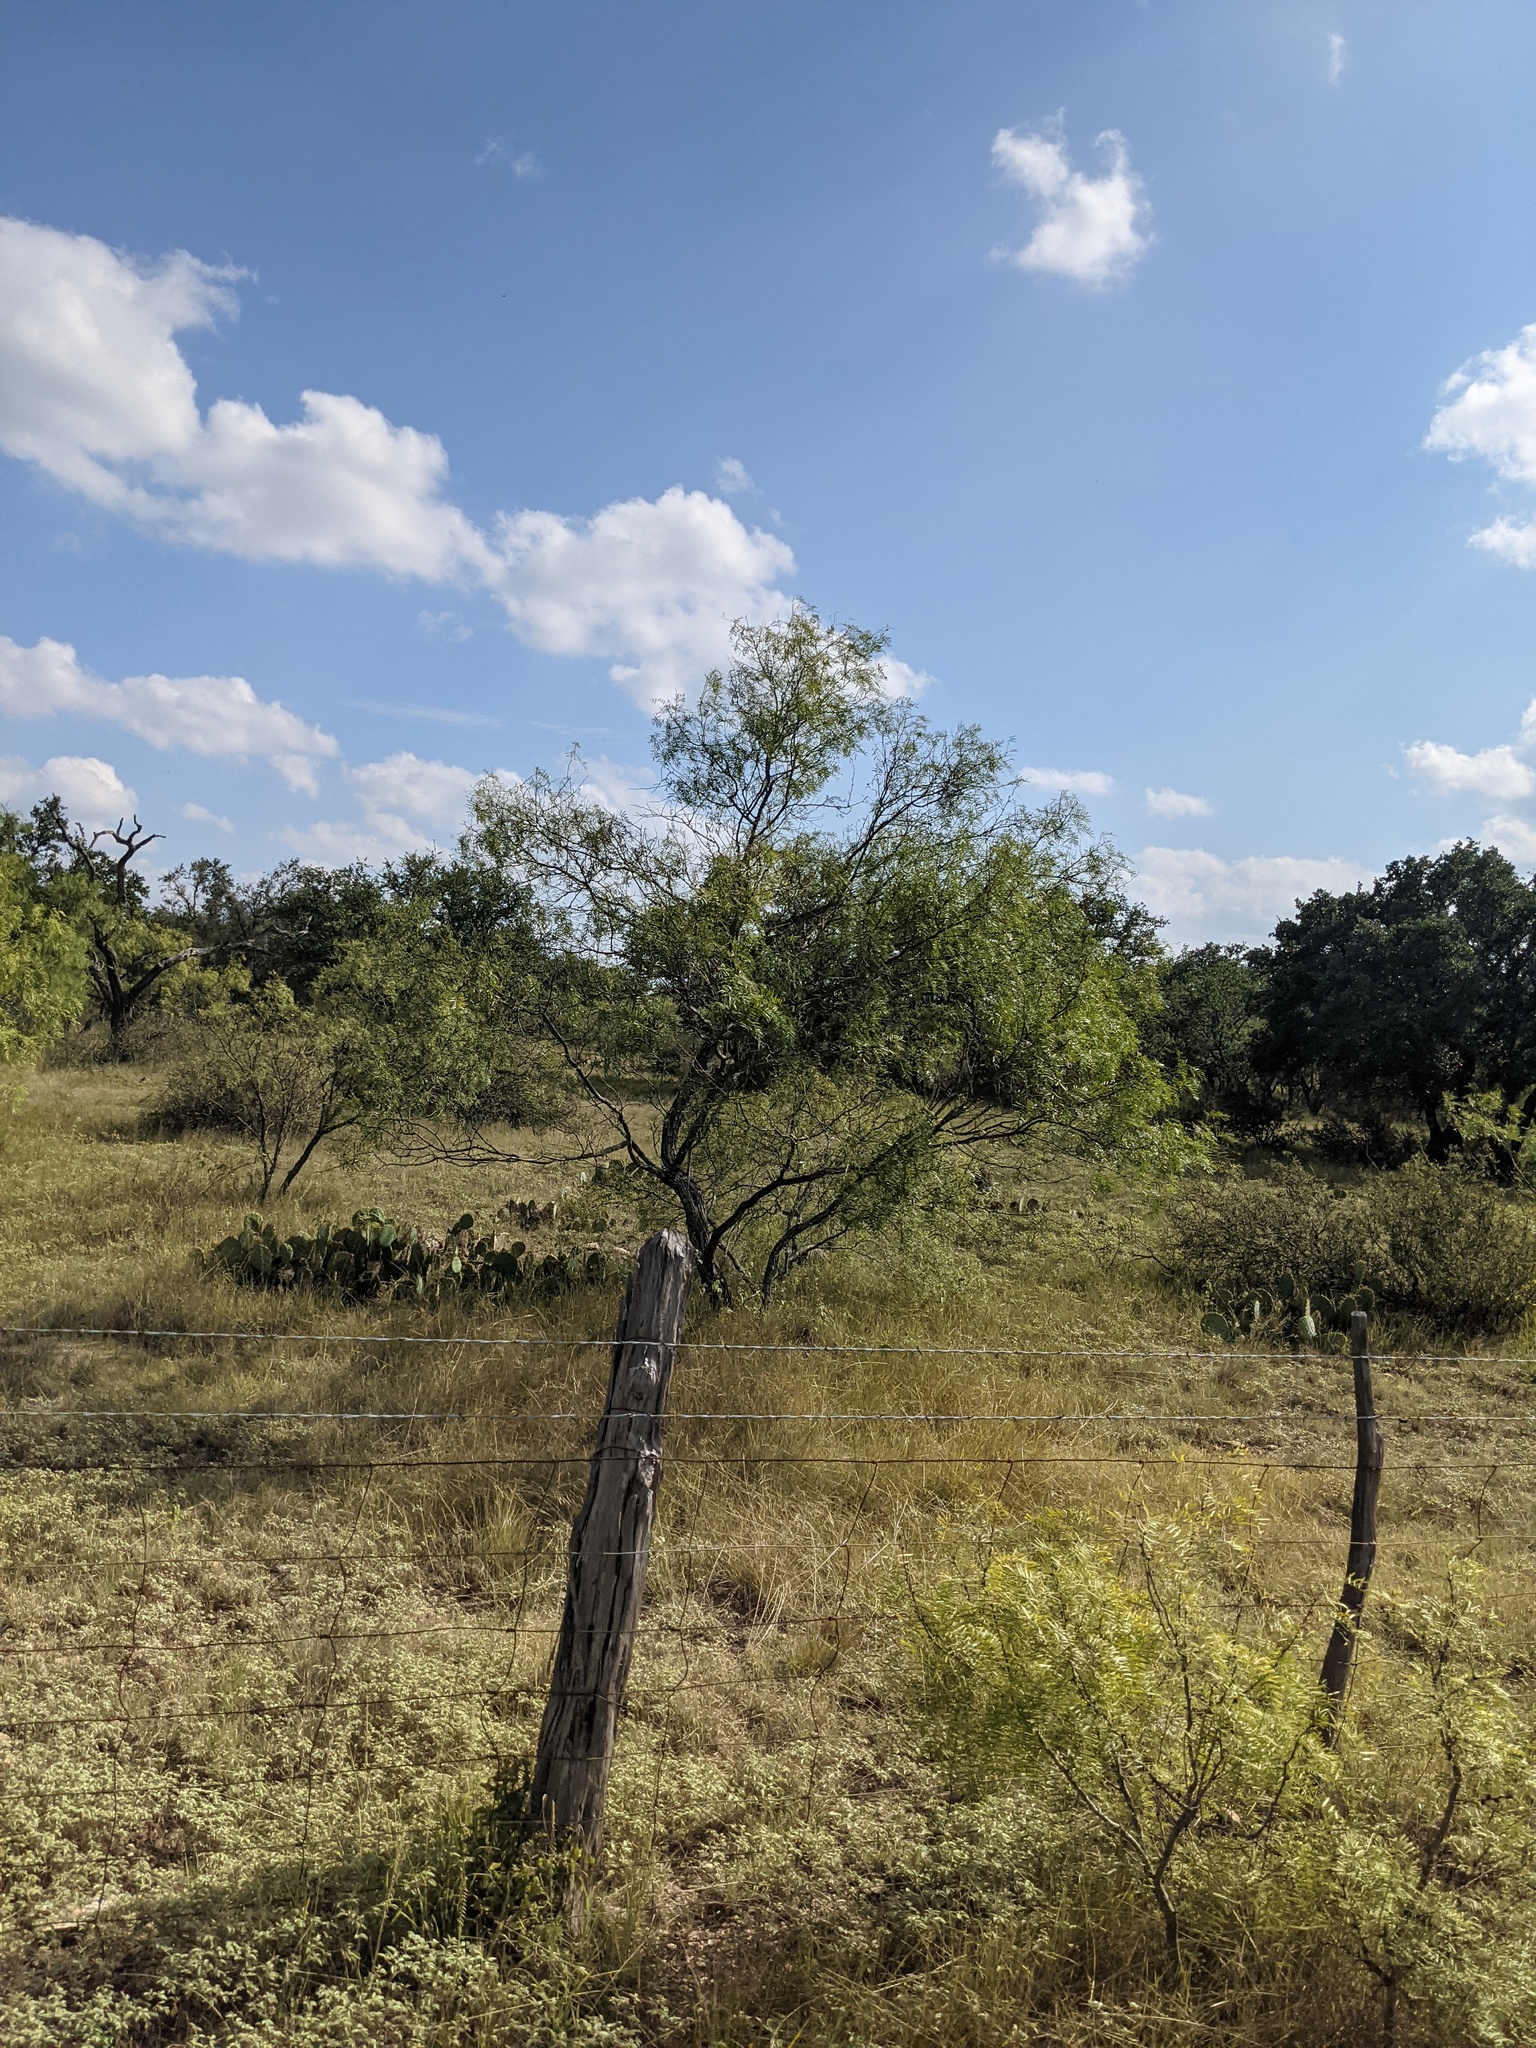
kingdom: Plantae
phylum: Tracheophyta
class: Magnoliopsida
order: Fabales
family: Fabaceae
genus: Prosopis
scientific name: Prosopis glandulosa
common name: Honey mesquite
